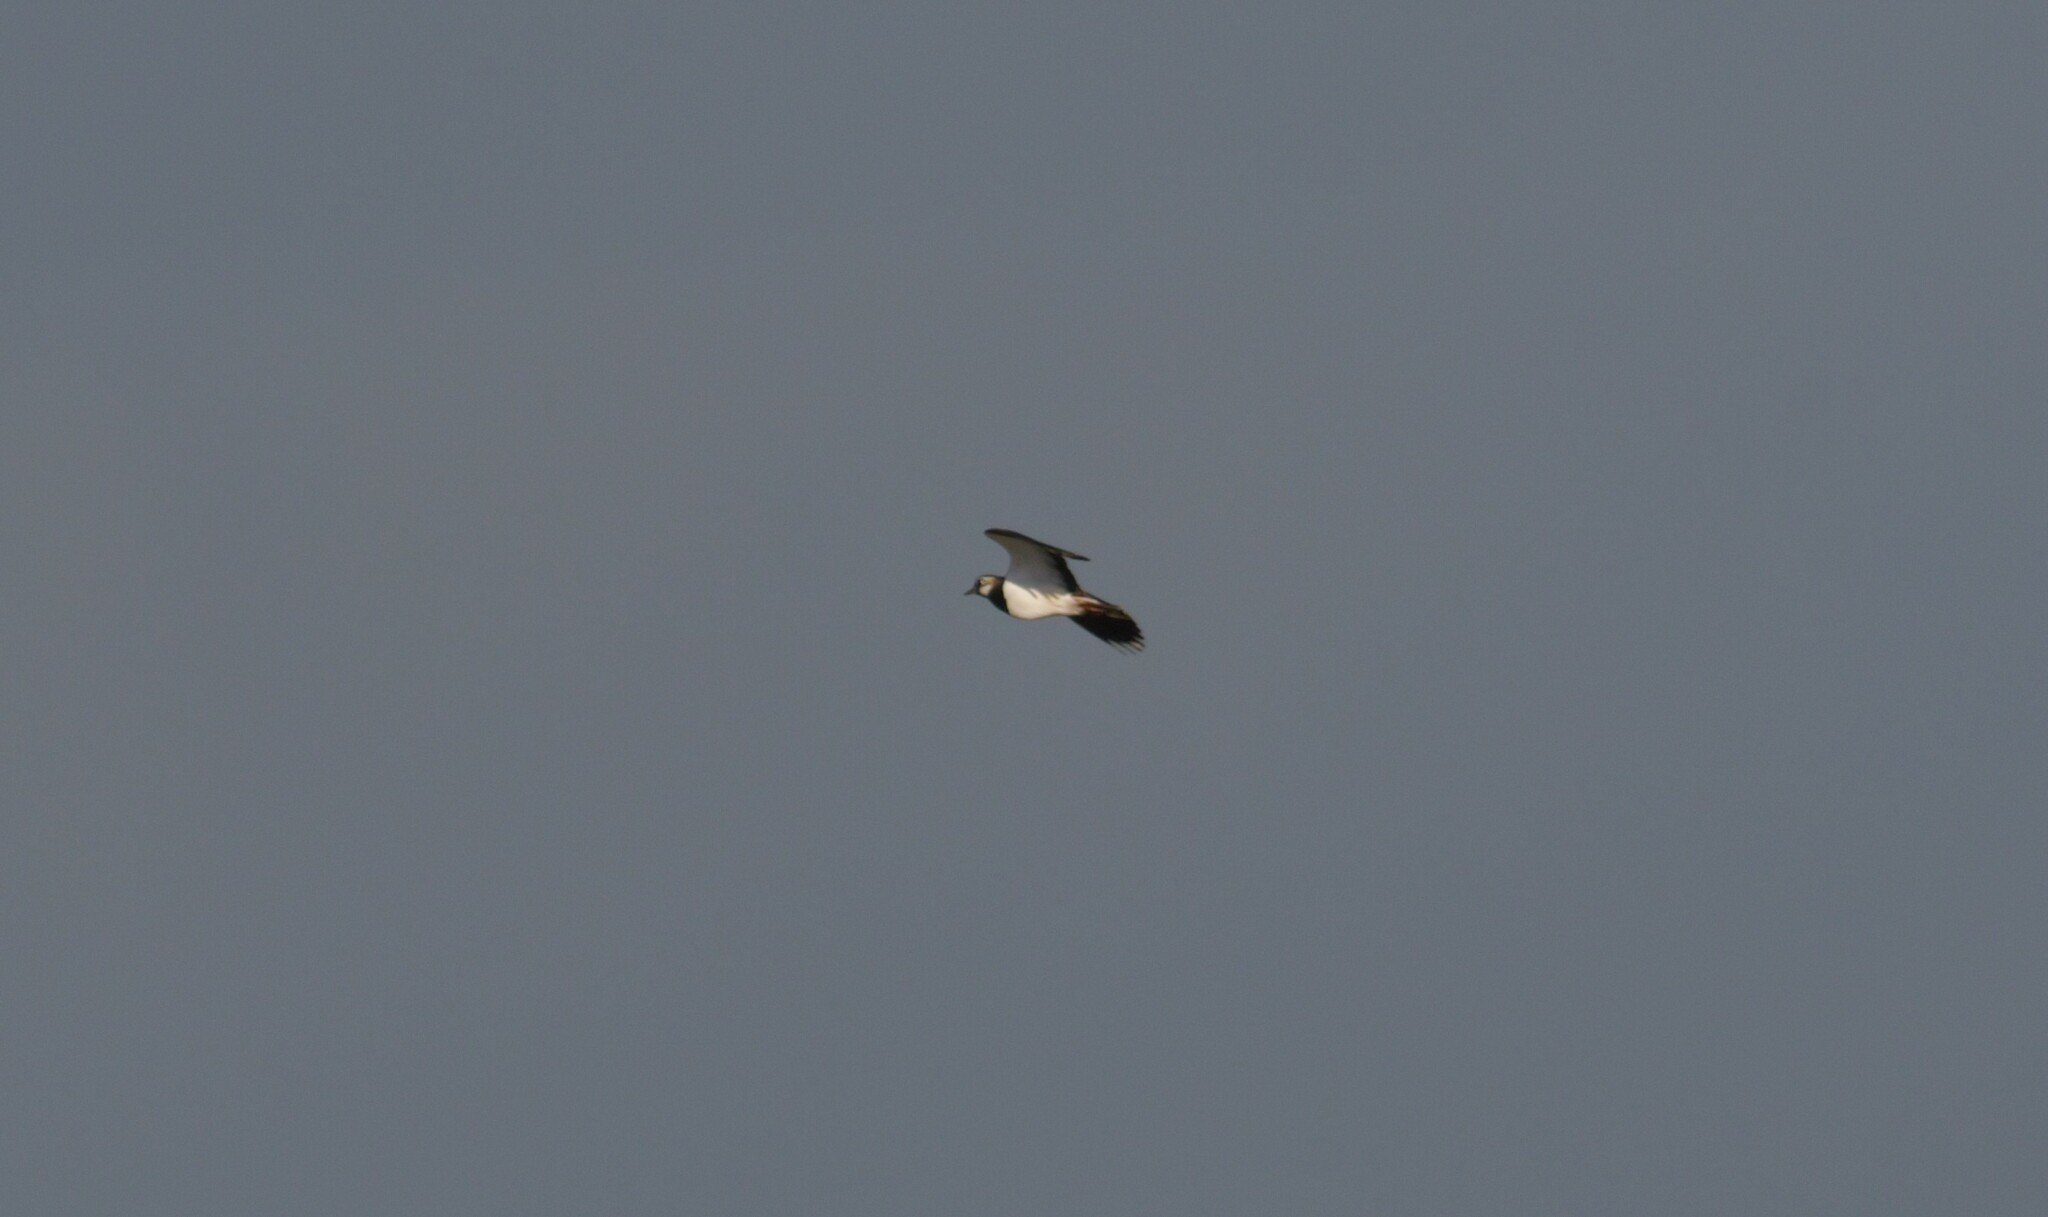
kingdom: Animalia
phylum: Chordata
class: Aves
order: Charadriiformes
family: Charadriidae
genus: Vanellus
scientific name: Vanellus vanellus
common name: Northern lapwing
